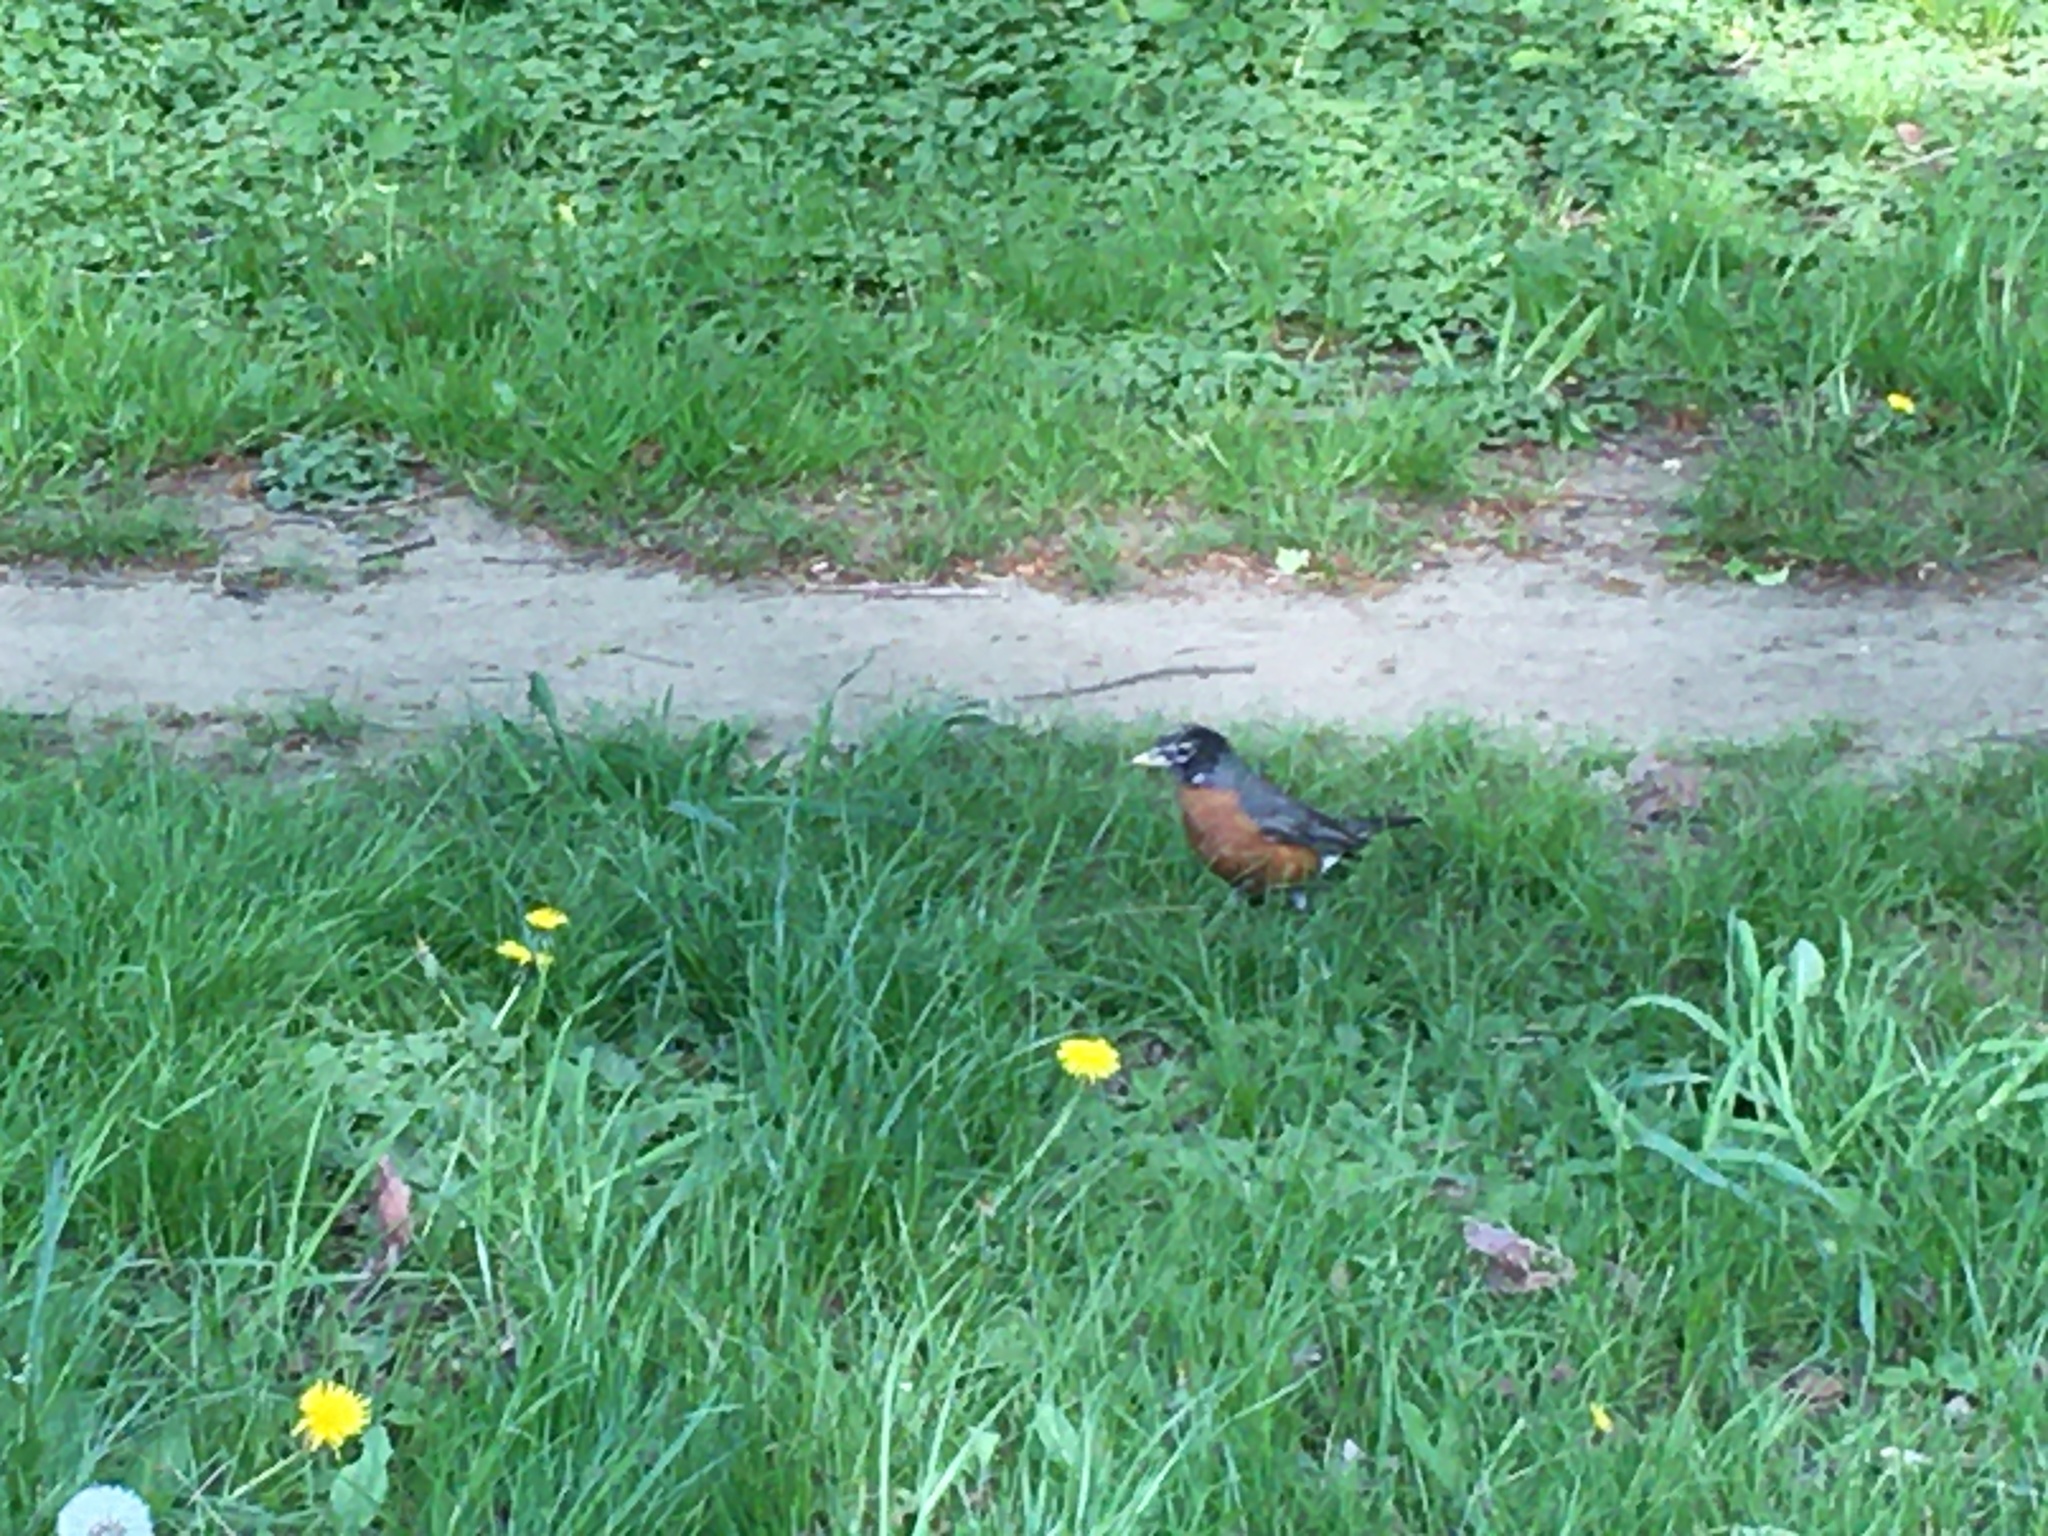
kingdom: Animalia
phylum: Chordata
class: Aves
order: Passeriformes
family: Turdidae
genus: Turdus
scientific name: Turdus migratorius
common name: American robin
